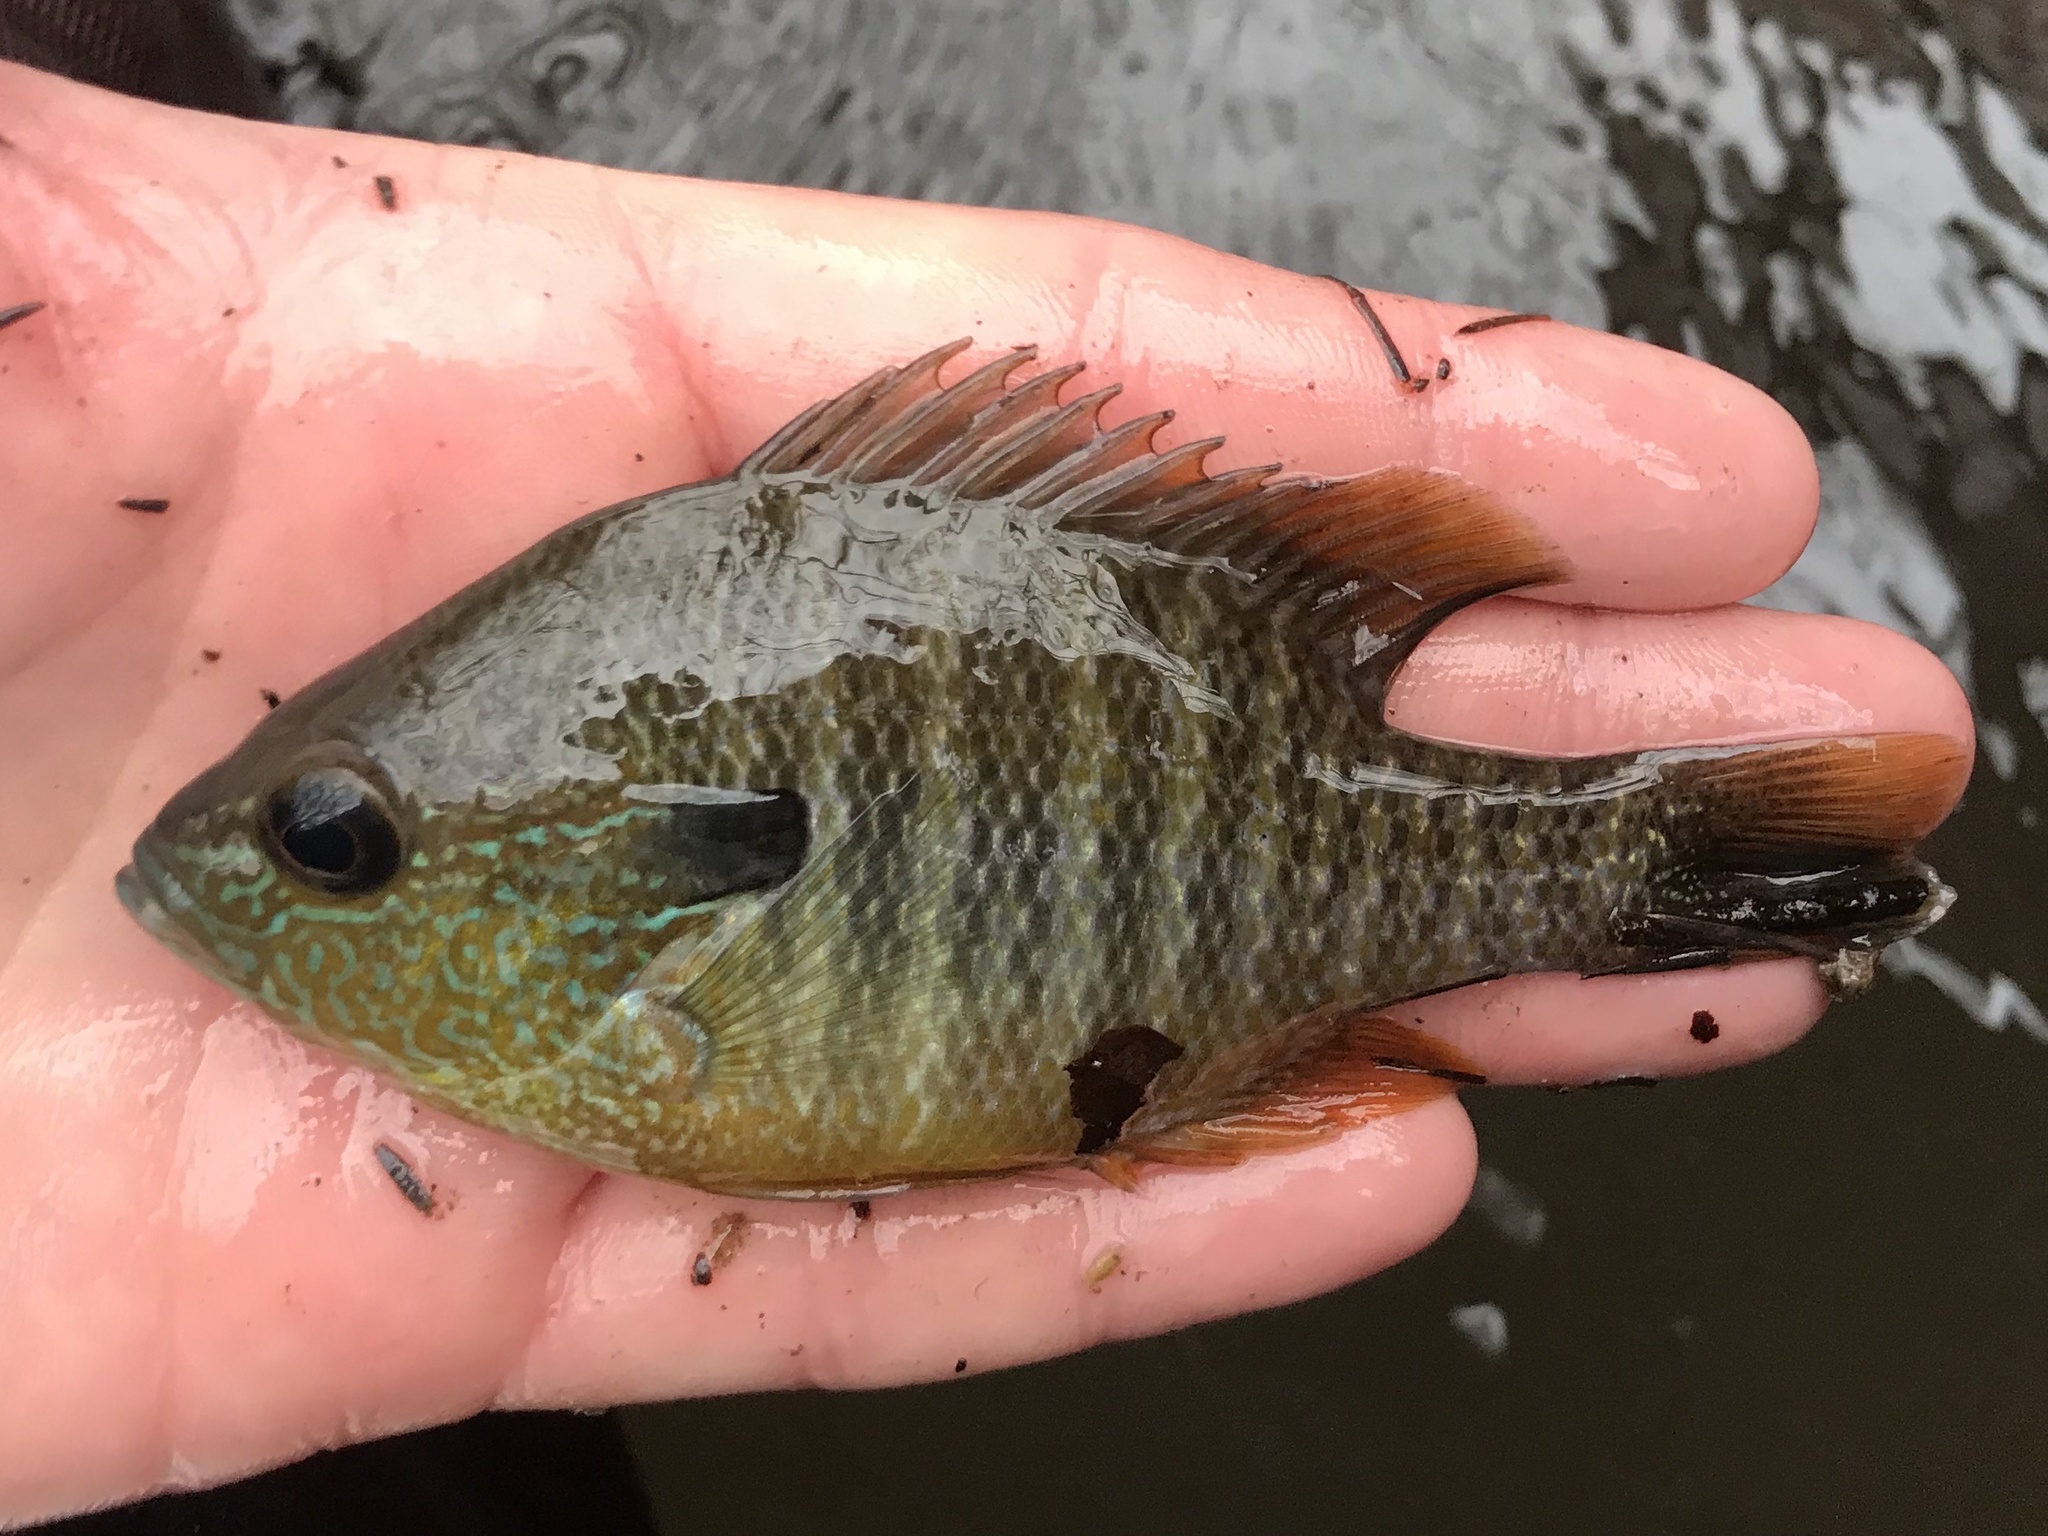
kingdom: Animalia
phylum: Chordata
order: Perciformes
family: Centrarchidae
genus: Lepomis
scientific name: Lepomis megalotis
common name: Longear sunfish
